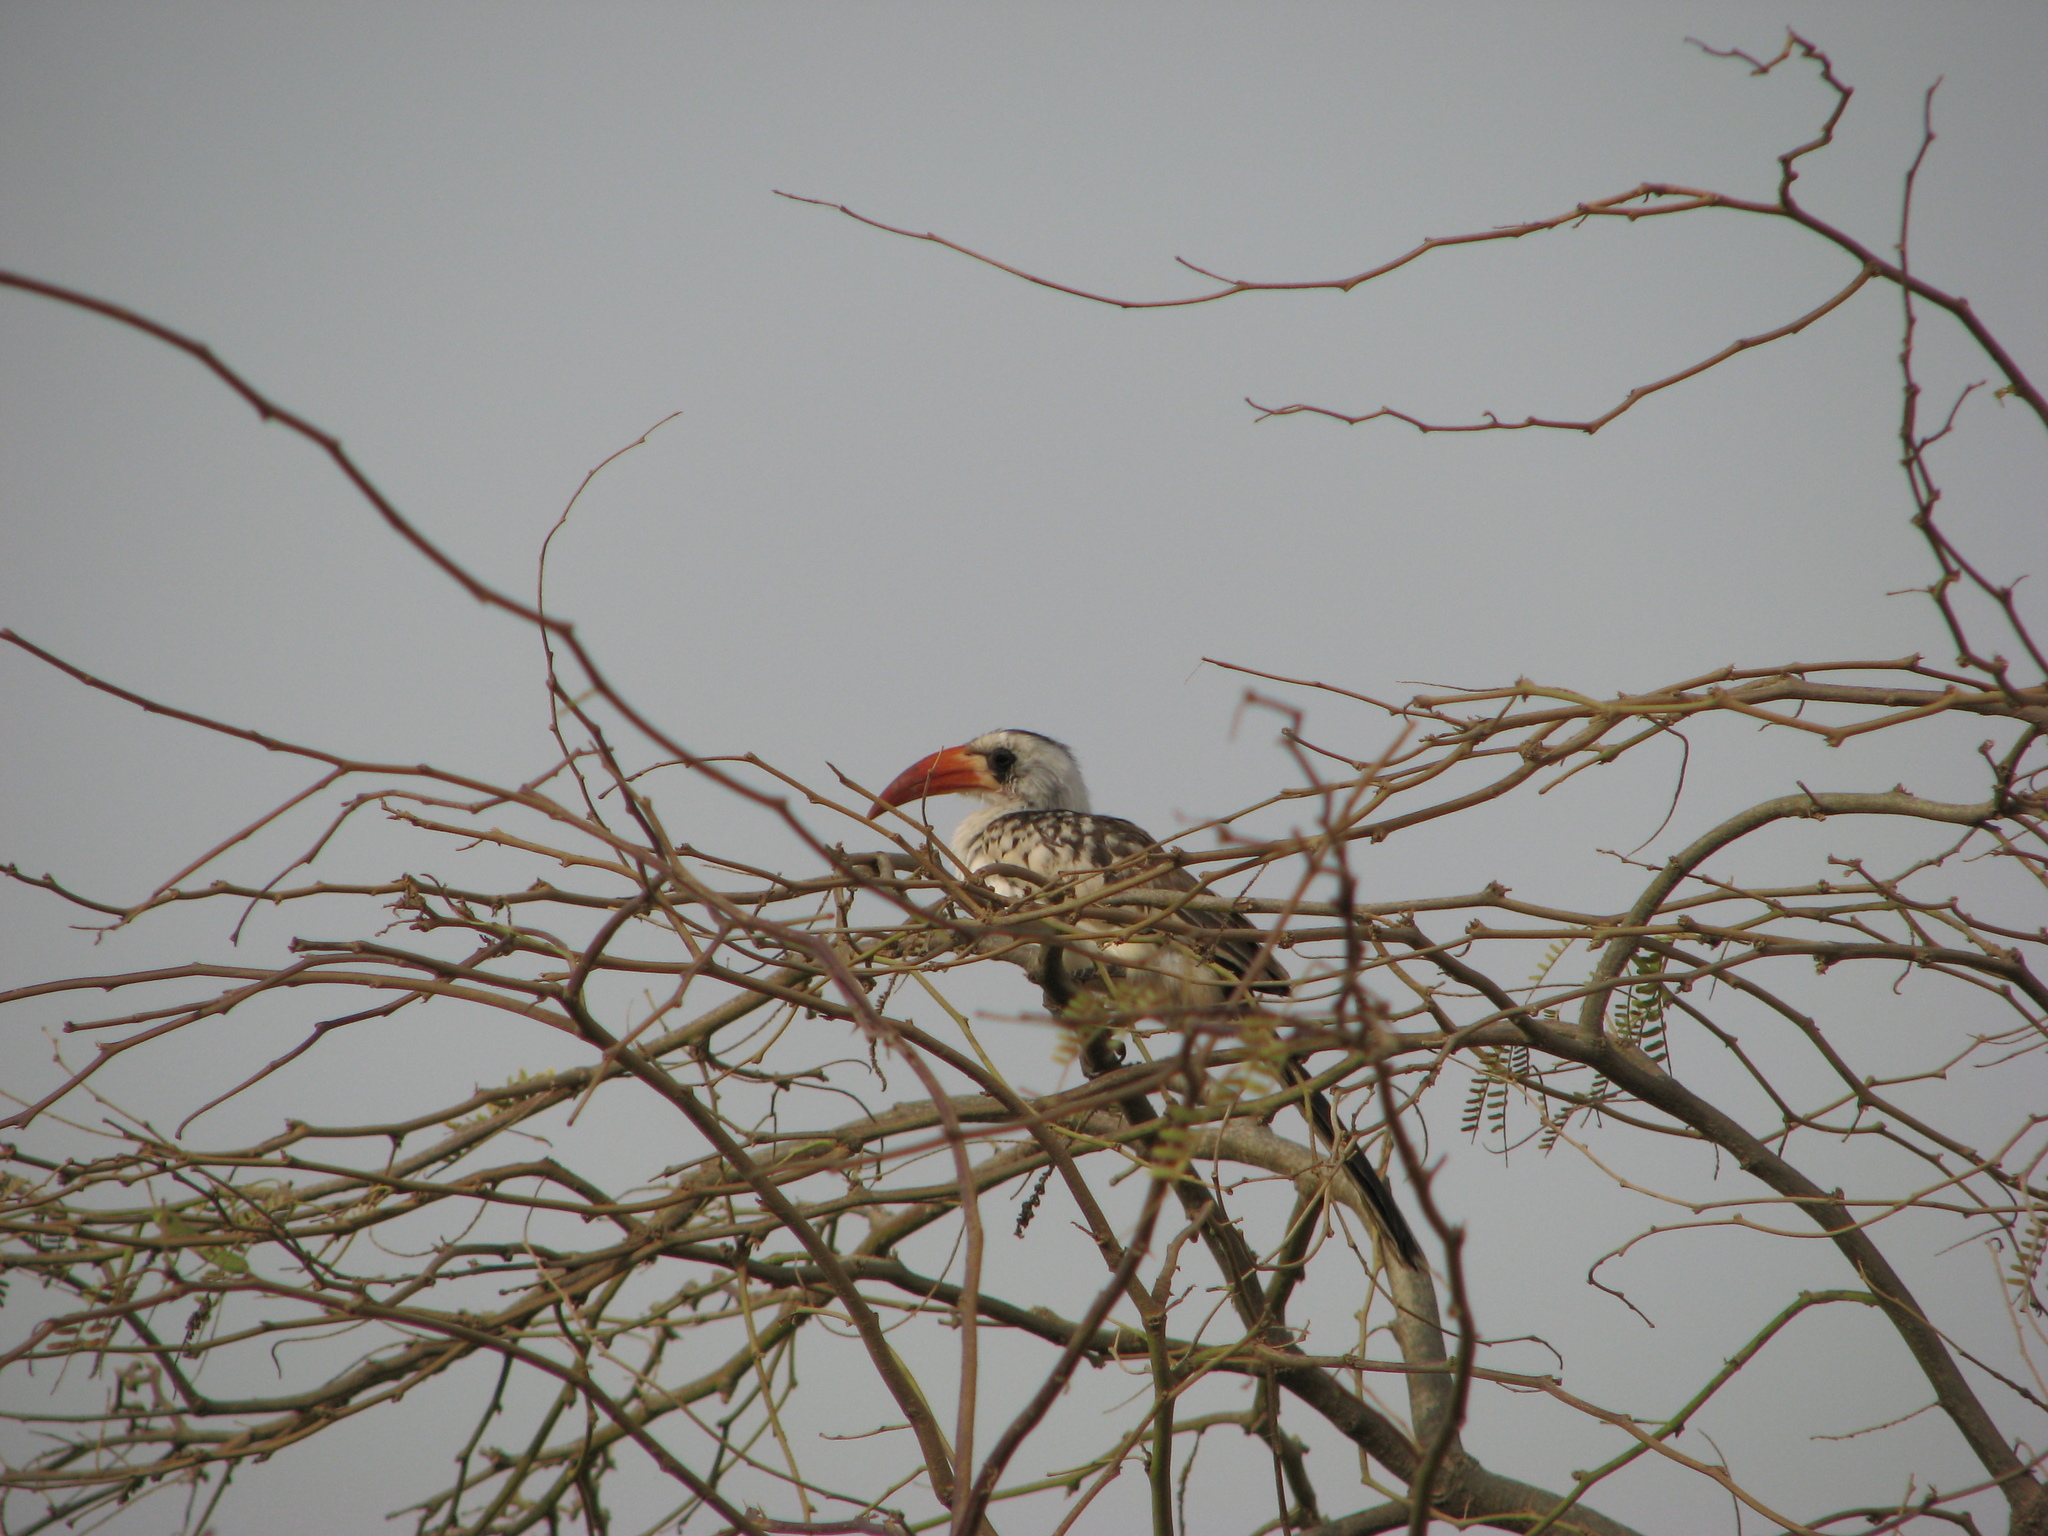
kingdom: Animalia
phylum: Chordata
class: Aves
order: Bucerotiformes
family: Bucerotidae
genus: Tockus
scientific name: Tockus kempi
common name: Western red-billed hornbill
